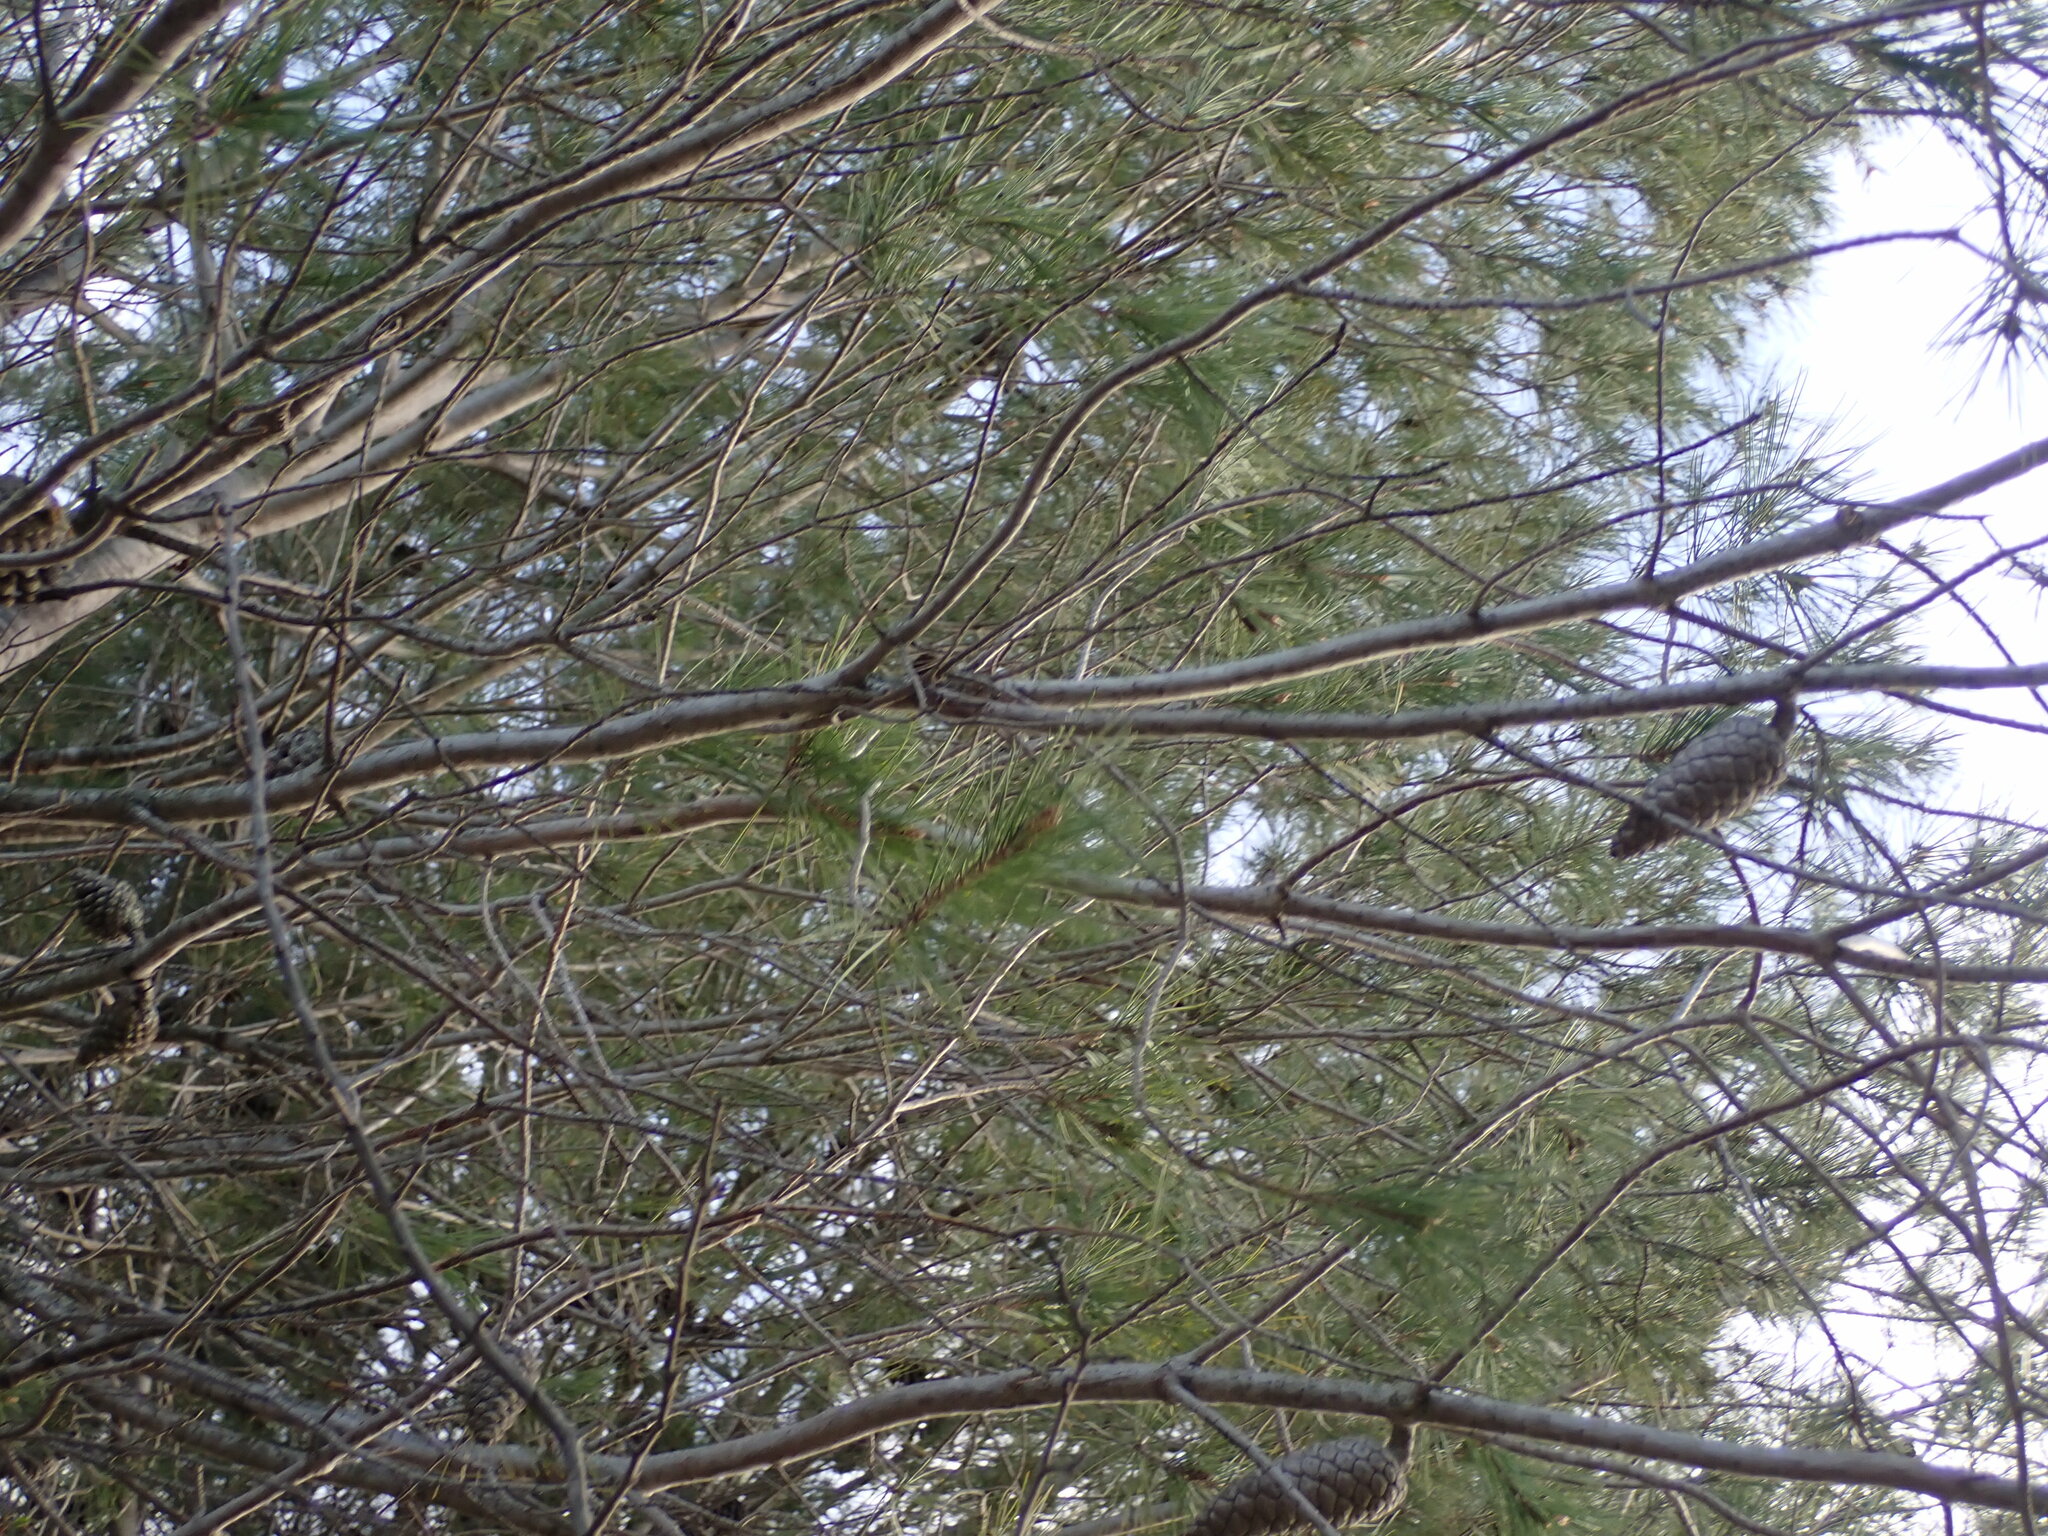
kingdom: Plantae
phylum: Tracheophyta
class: Pinopsida
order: Pinales
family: Pinaceae
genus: Pinus
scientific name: Pinus halepensis
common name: Aleppo pine
